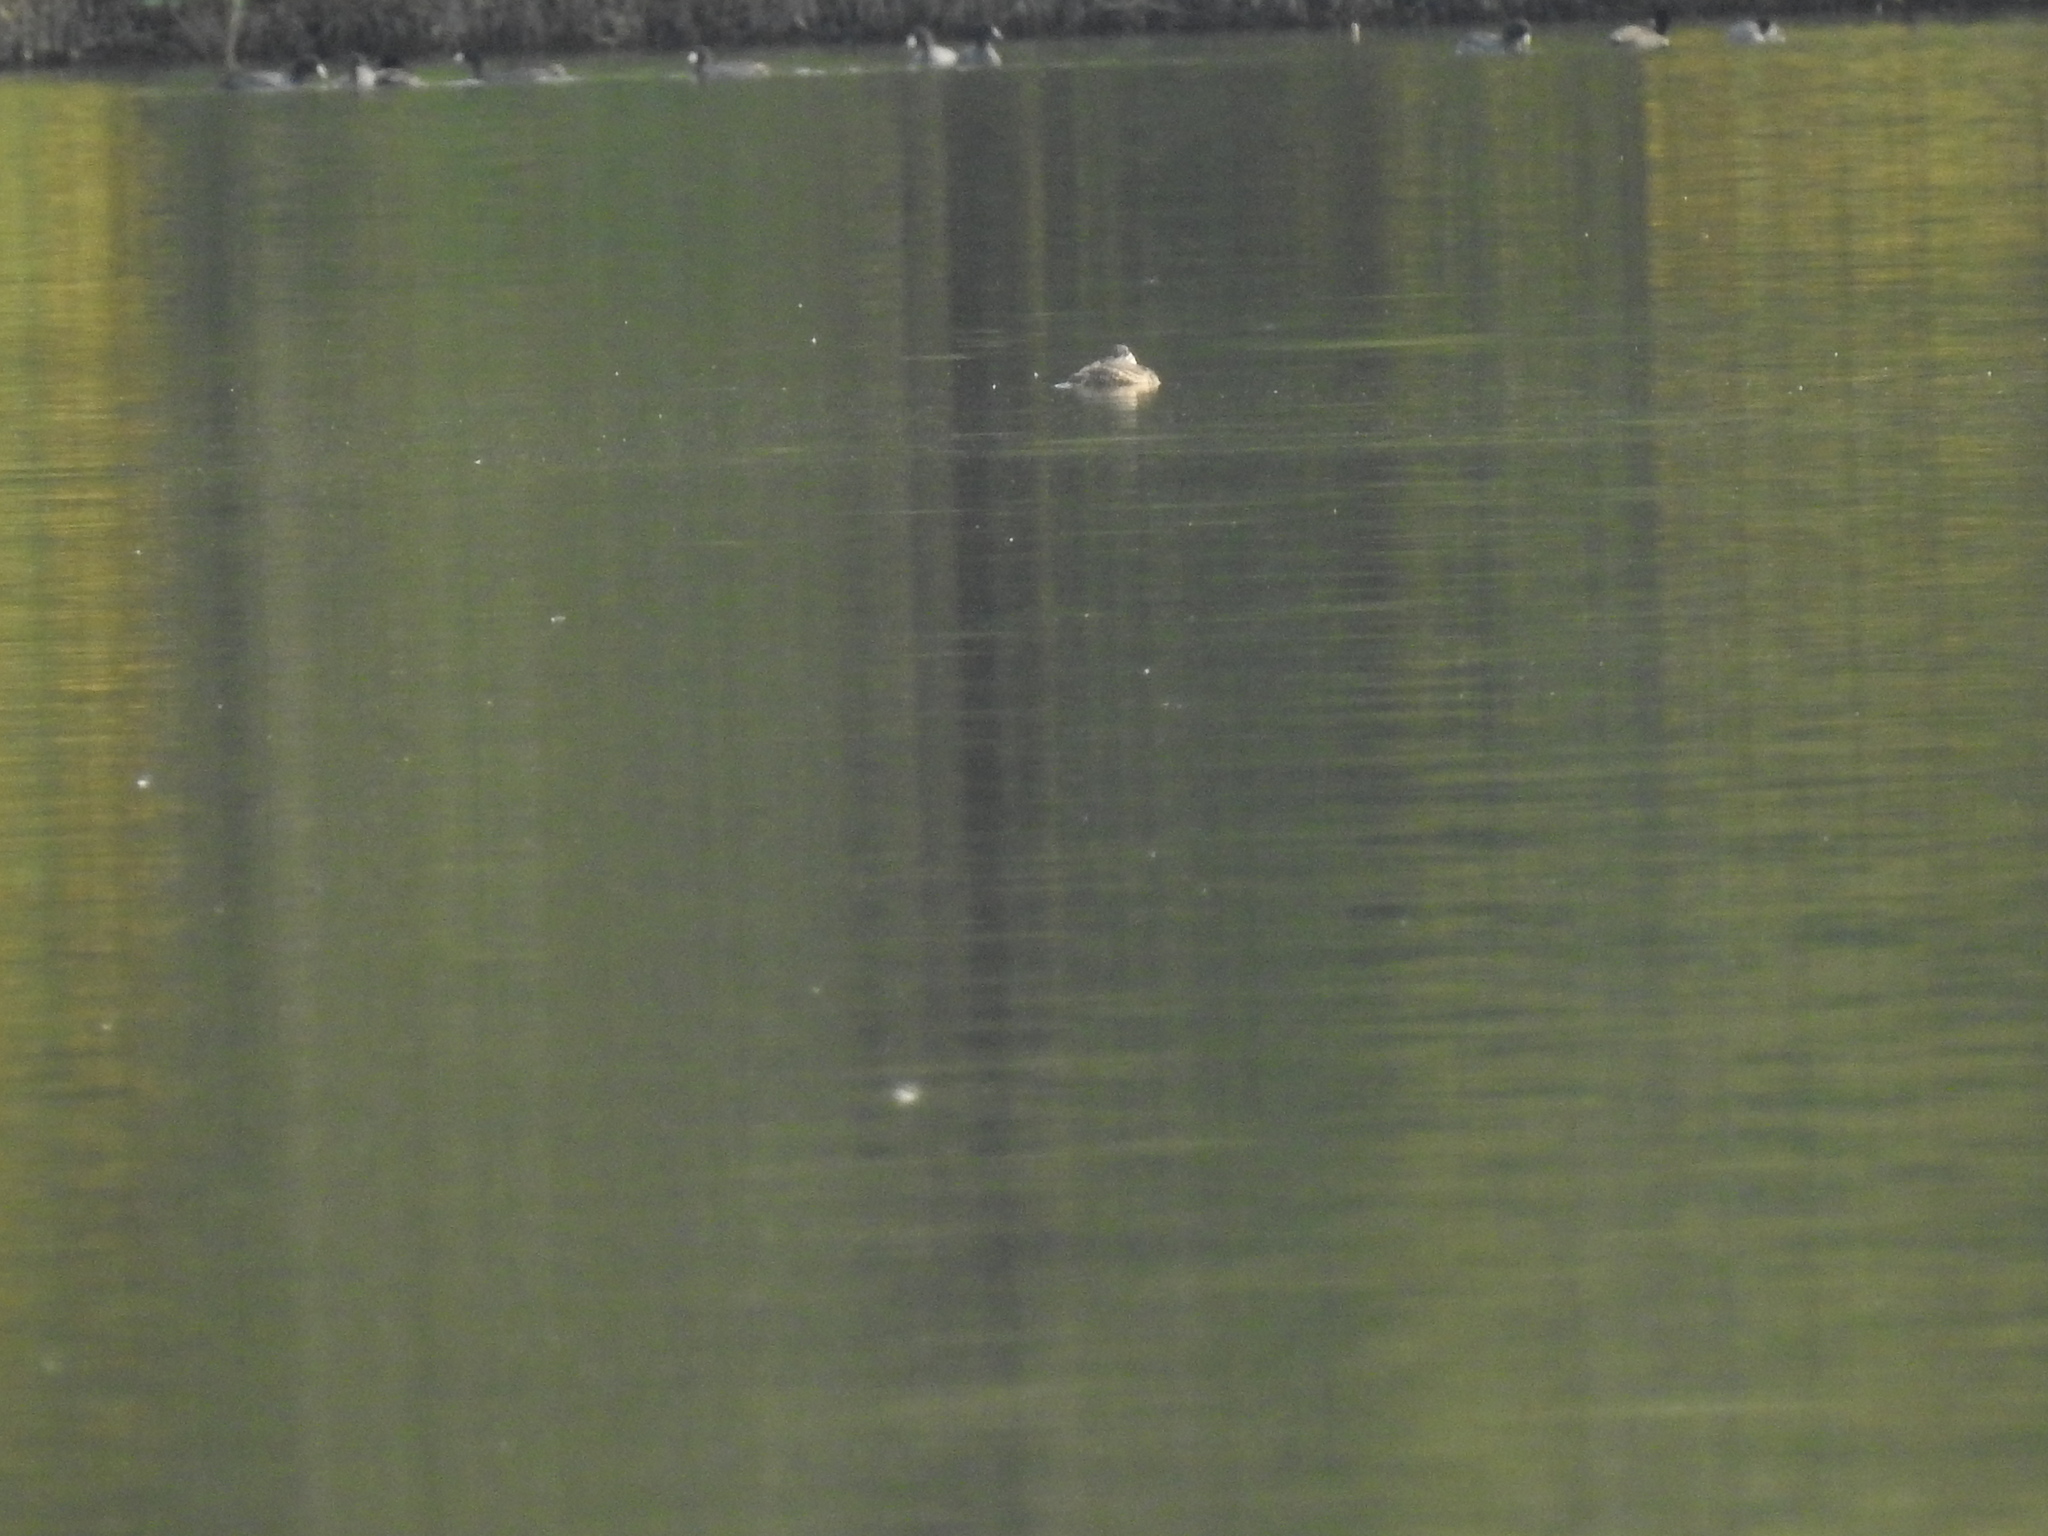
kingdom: Animalia
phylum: Chordata
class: Aves
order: Anseriformes
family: Anatidae
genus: Oxyura
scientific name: Oxyura jamaicensis
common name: Ruddy duck
